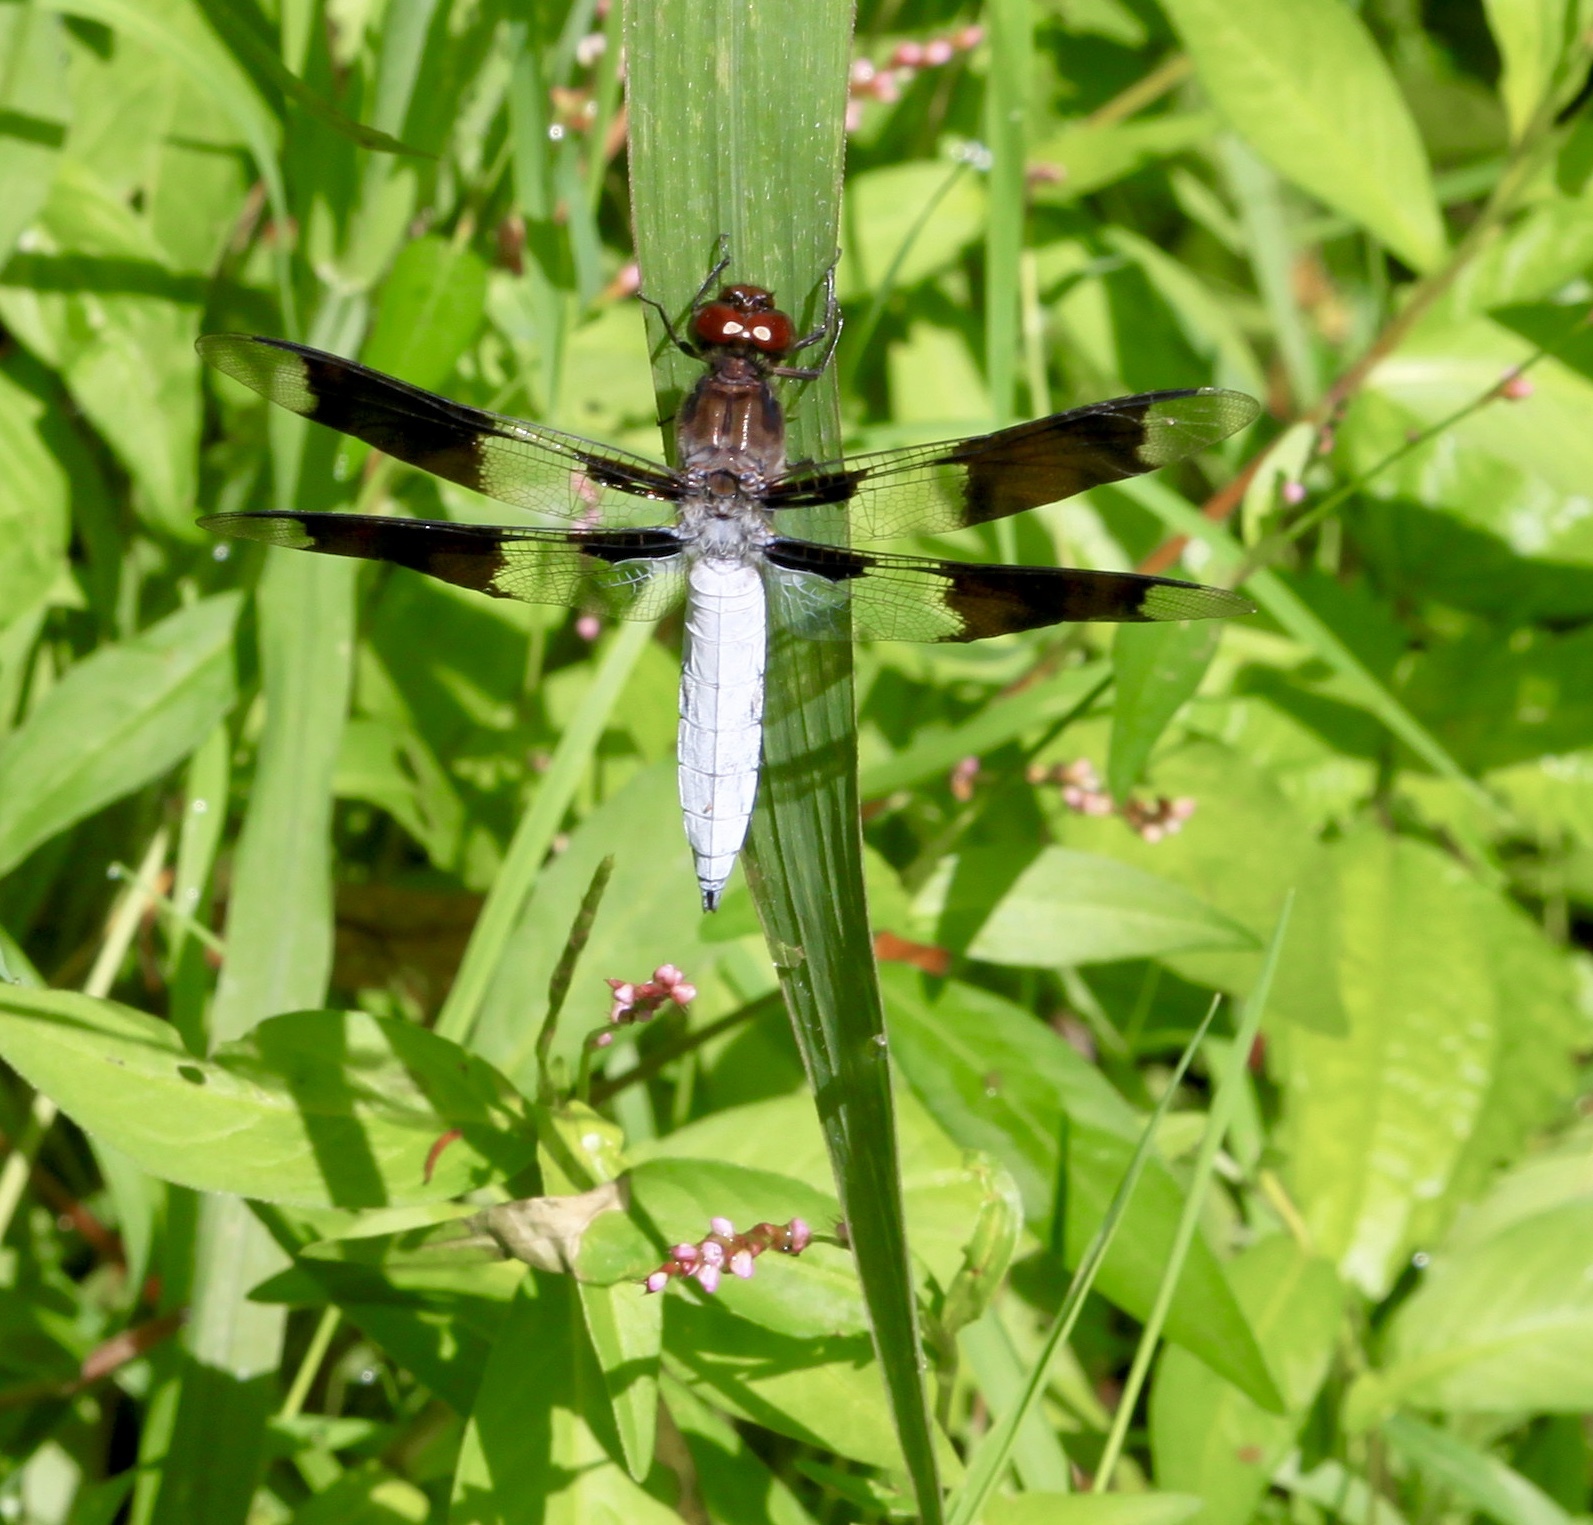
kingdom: Animalia
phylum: Arthropoda
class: Insecta
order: Odonata
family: Libellulidae
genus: Plathemis
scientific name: Plathemis lydia
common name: Common whitetail
